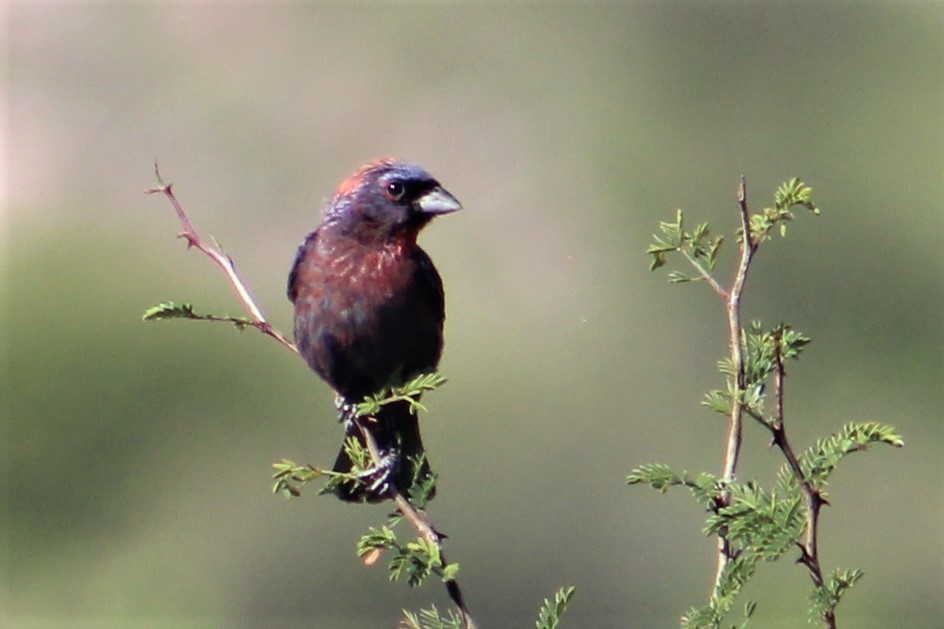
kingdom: Animalia
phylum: Chordata
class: Aves
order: Passeriformes
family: Cardinalidae
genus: Passerina
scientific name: Passerina versicolor
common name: Varied bunting
